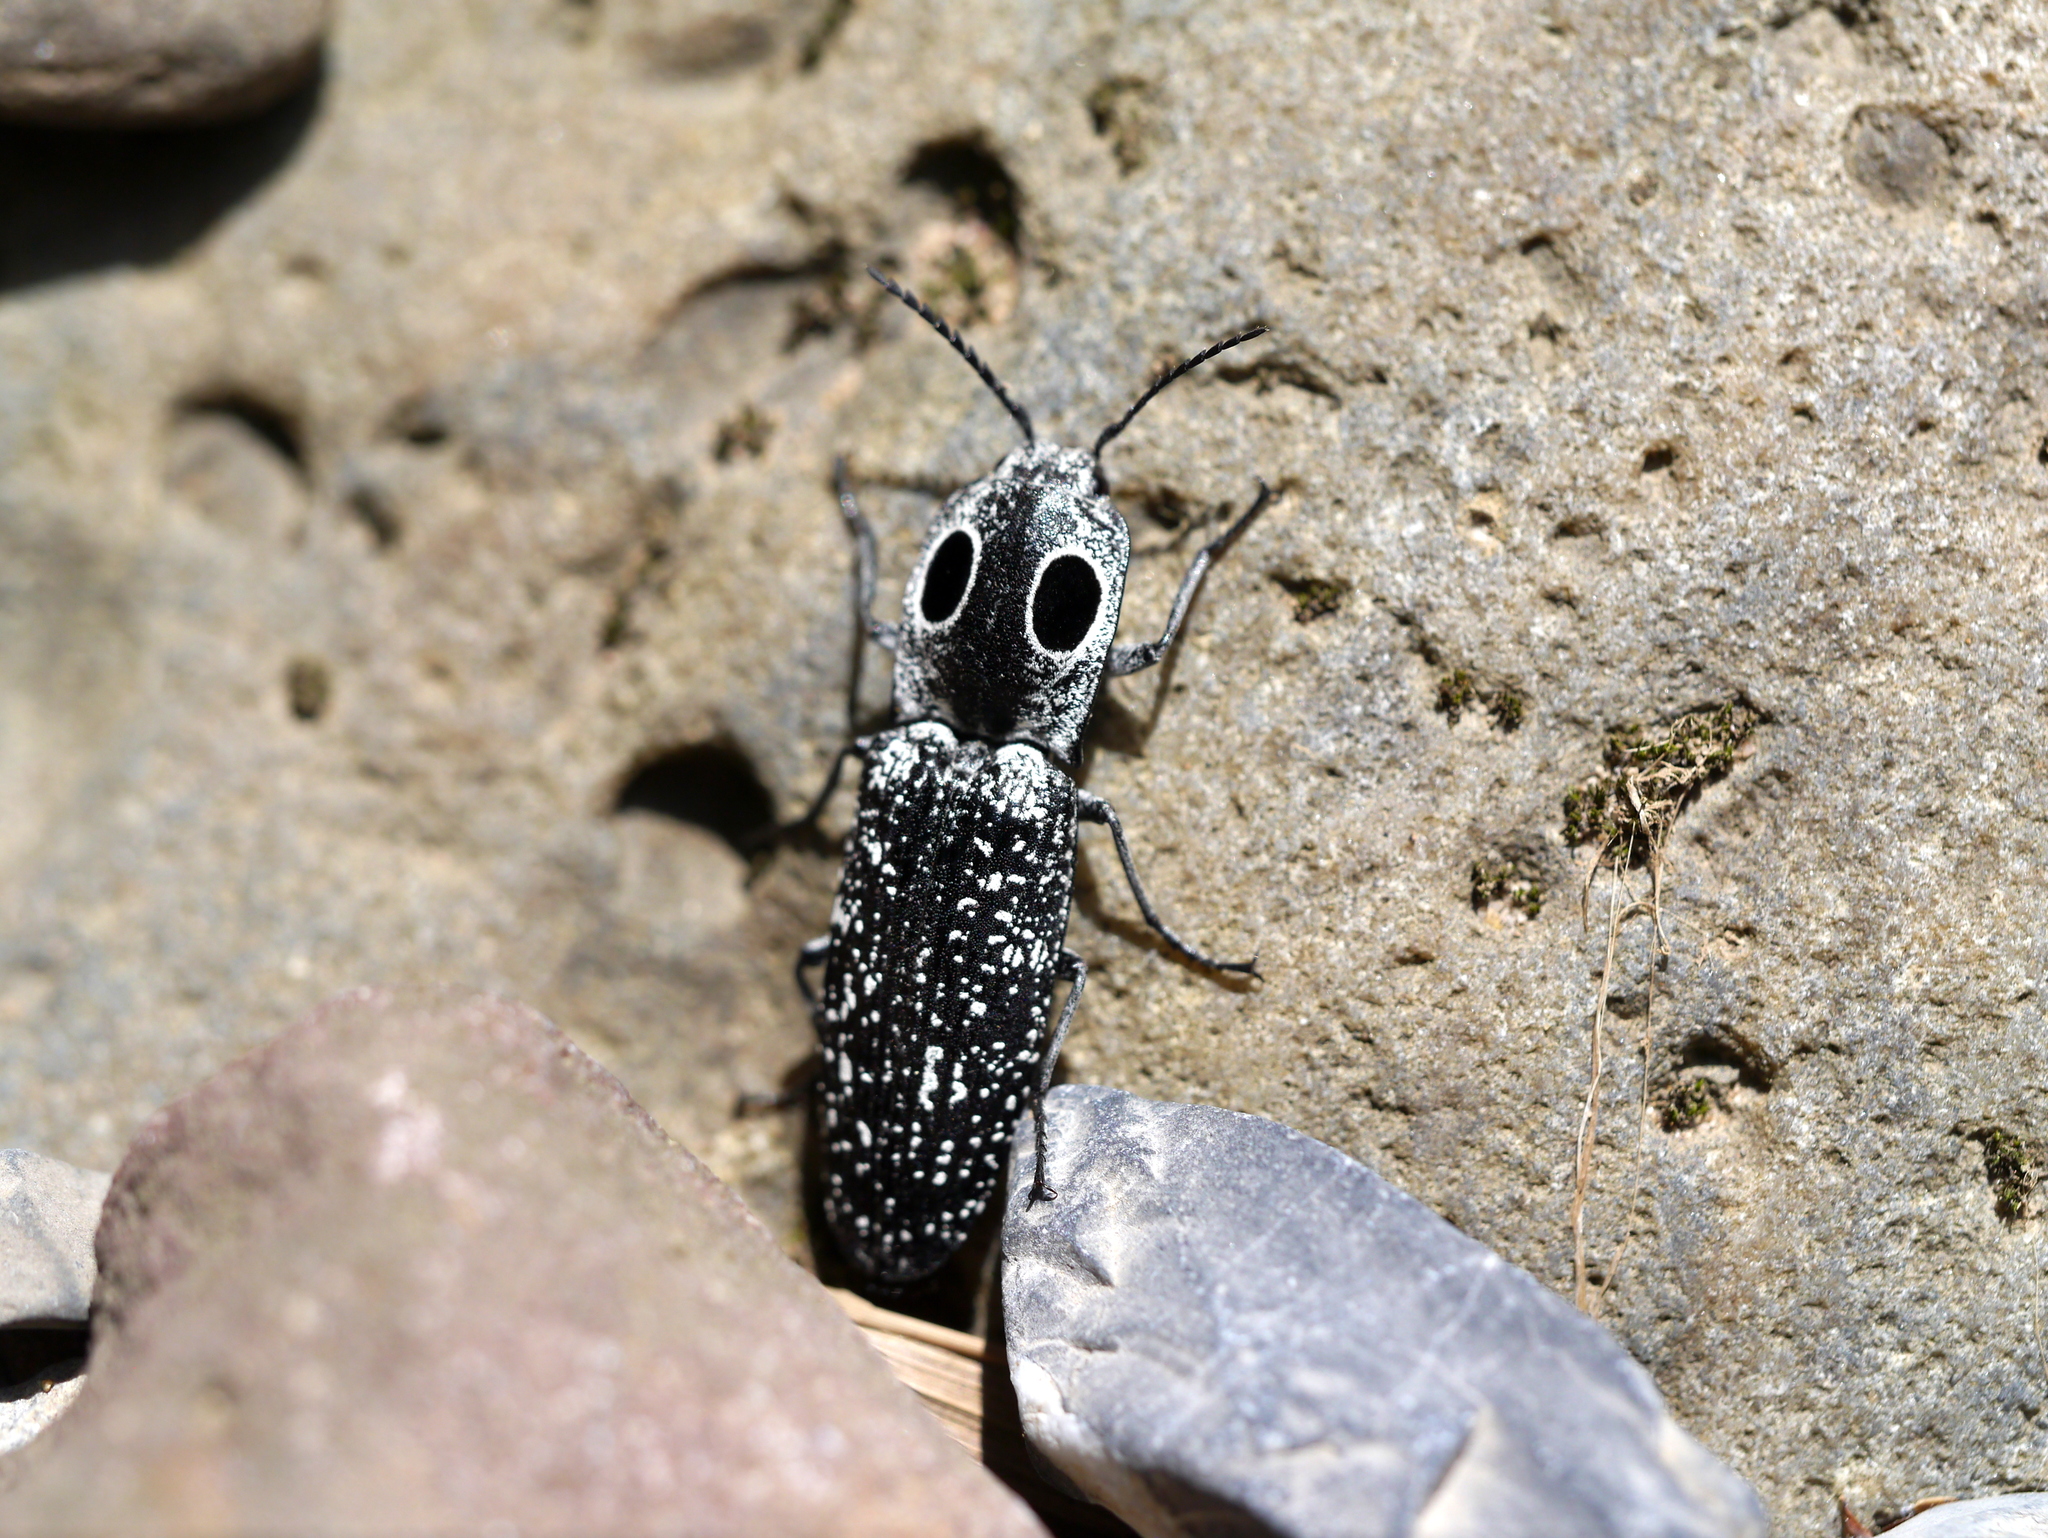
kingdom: Animalia
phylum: Arthropoda
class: Insecta
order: Coleoptera
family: Elateridae
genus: Alaus
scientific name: Alaus oculatus
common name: Eastern eyed click beetle
